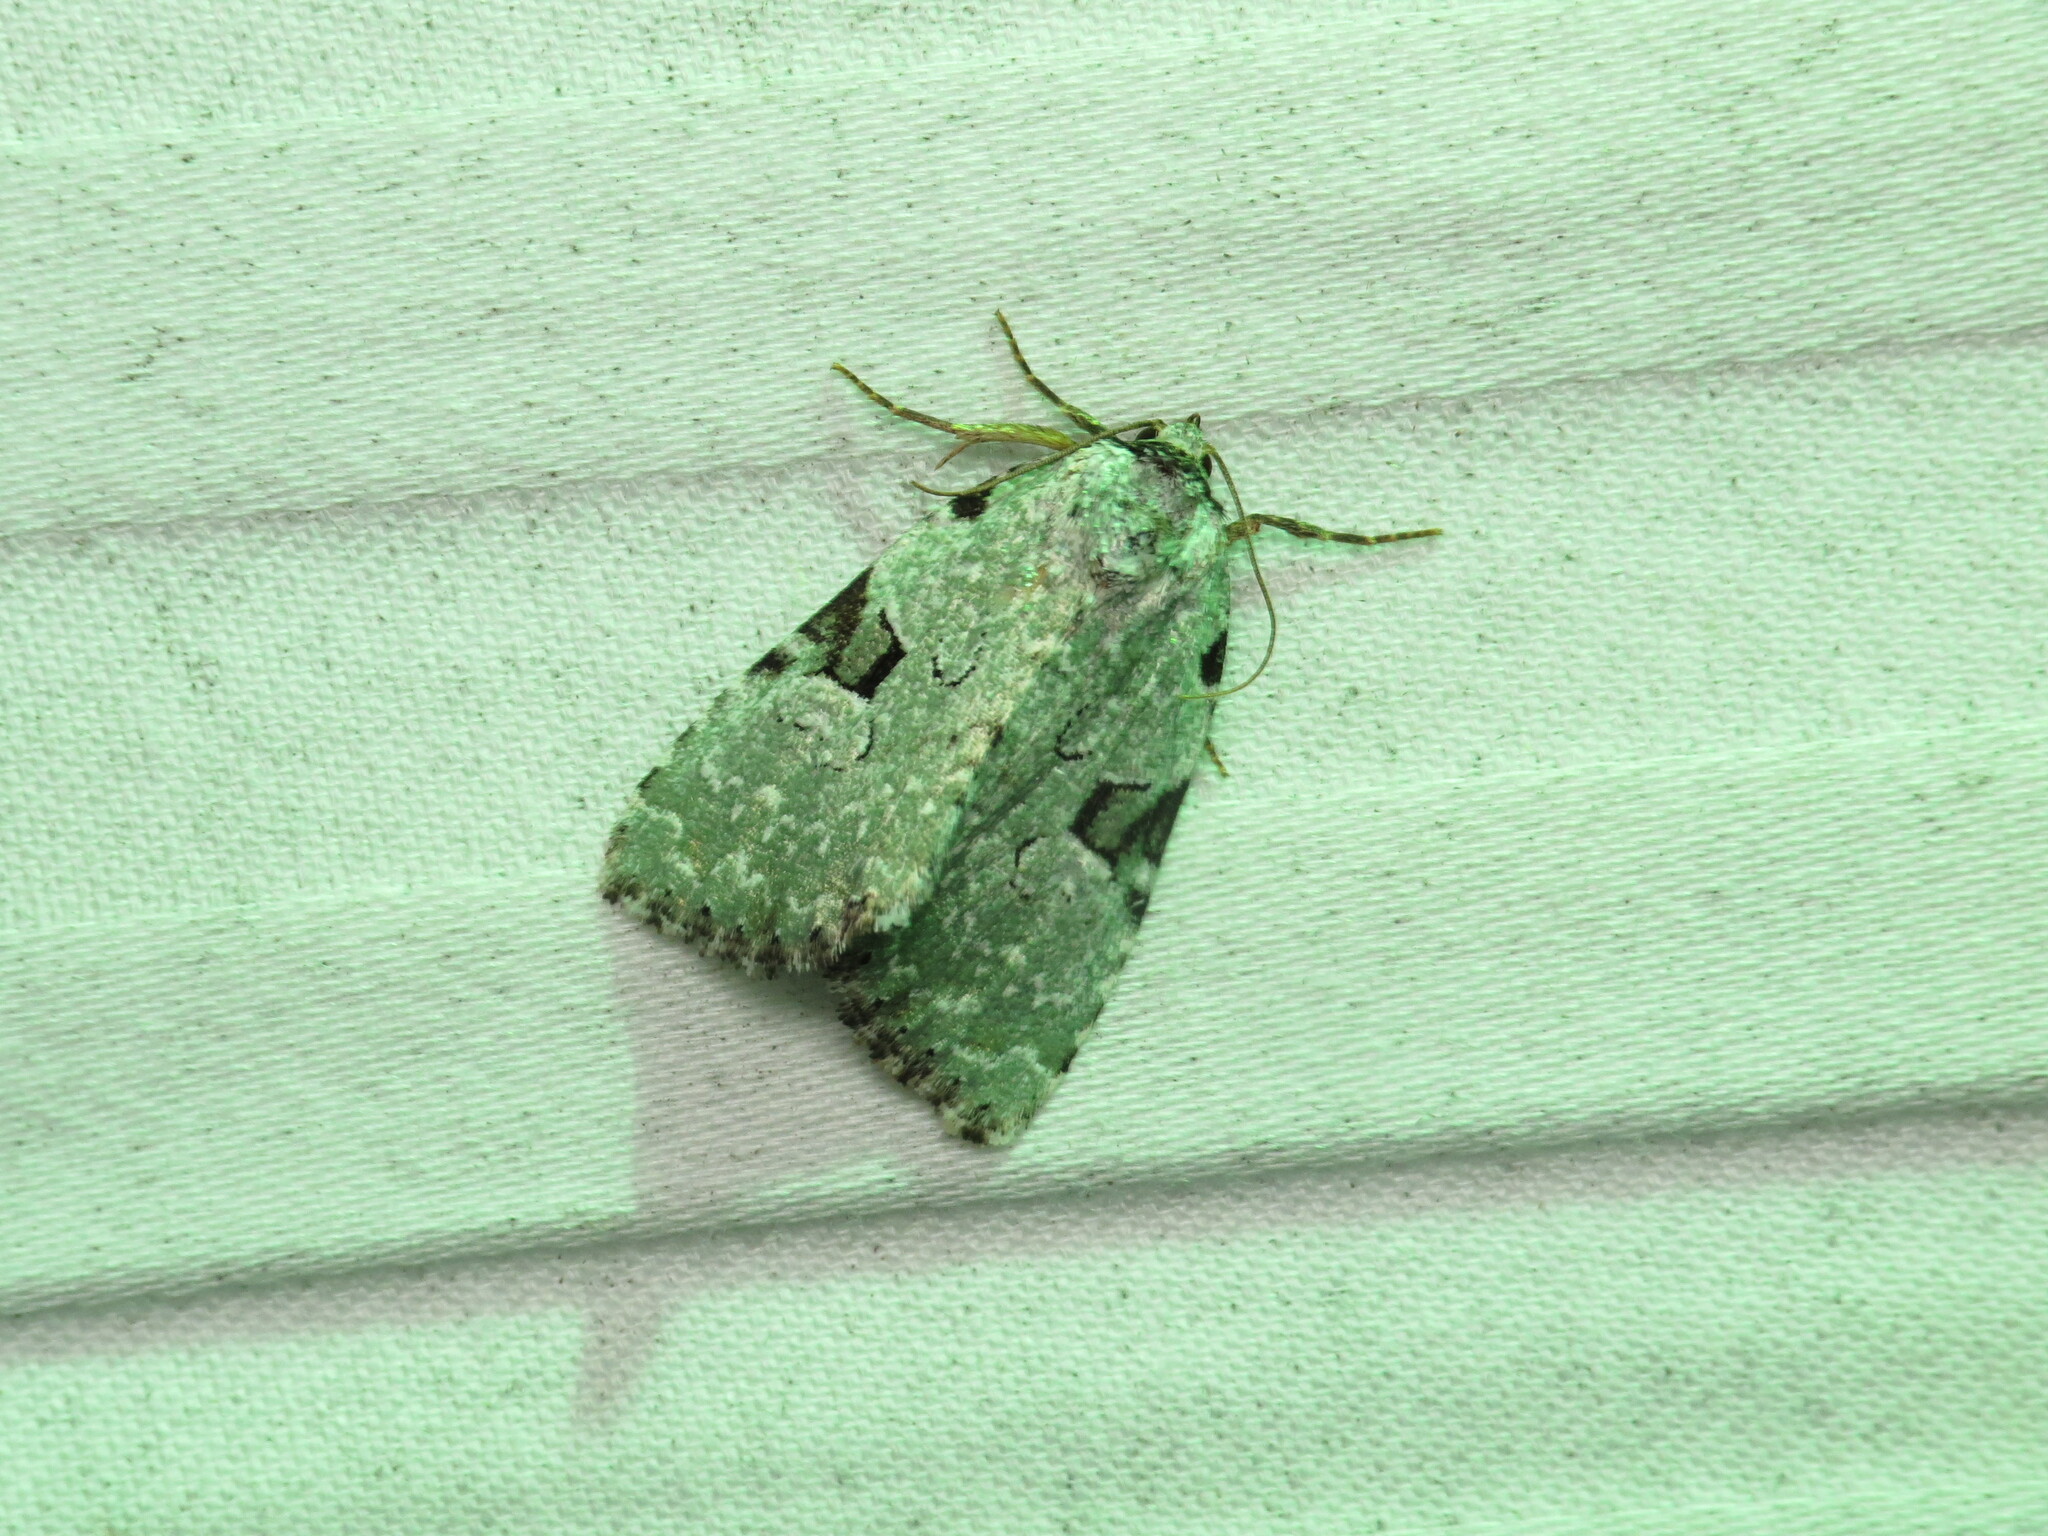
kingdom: Animalia
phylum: Arthropoda
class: Insecta
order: Lepidoptera
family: Noctuidae
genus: Leuconycta
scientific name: Leuconycta diphteroides
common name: Green leuconycta moth
